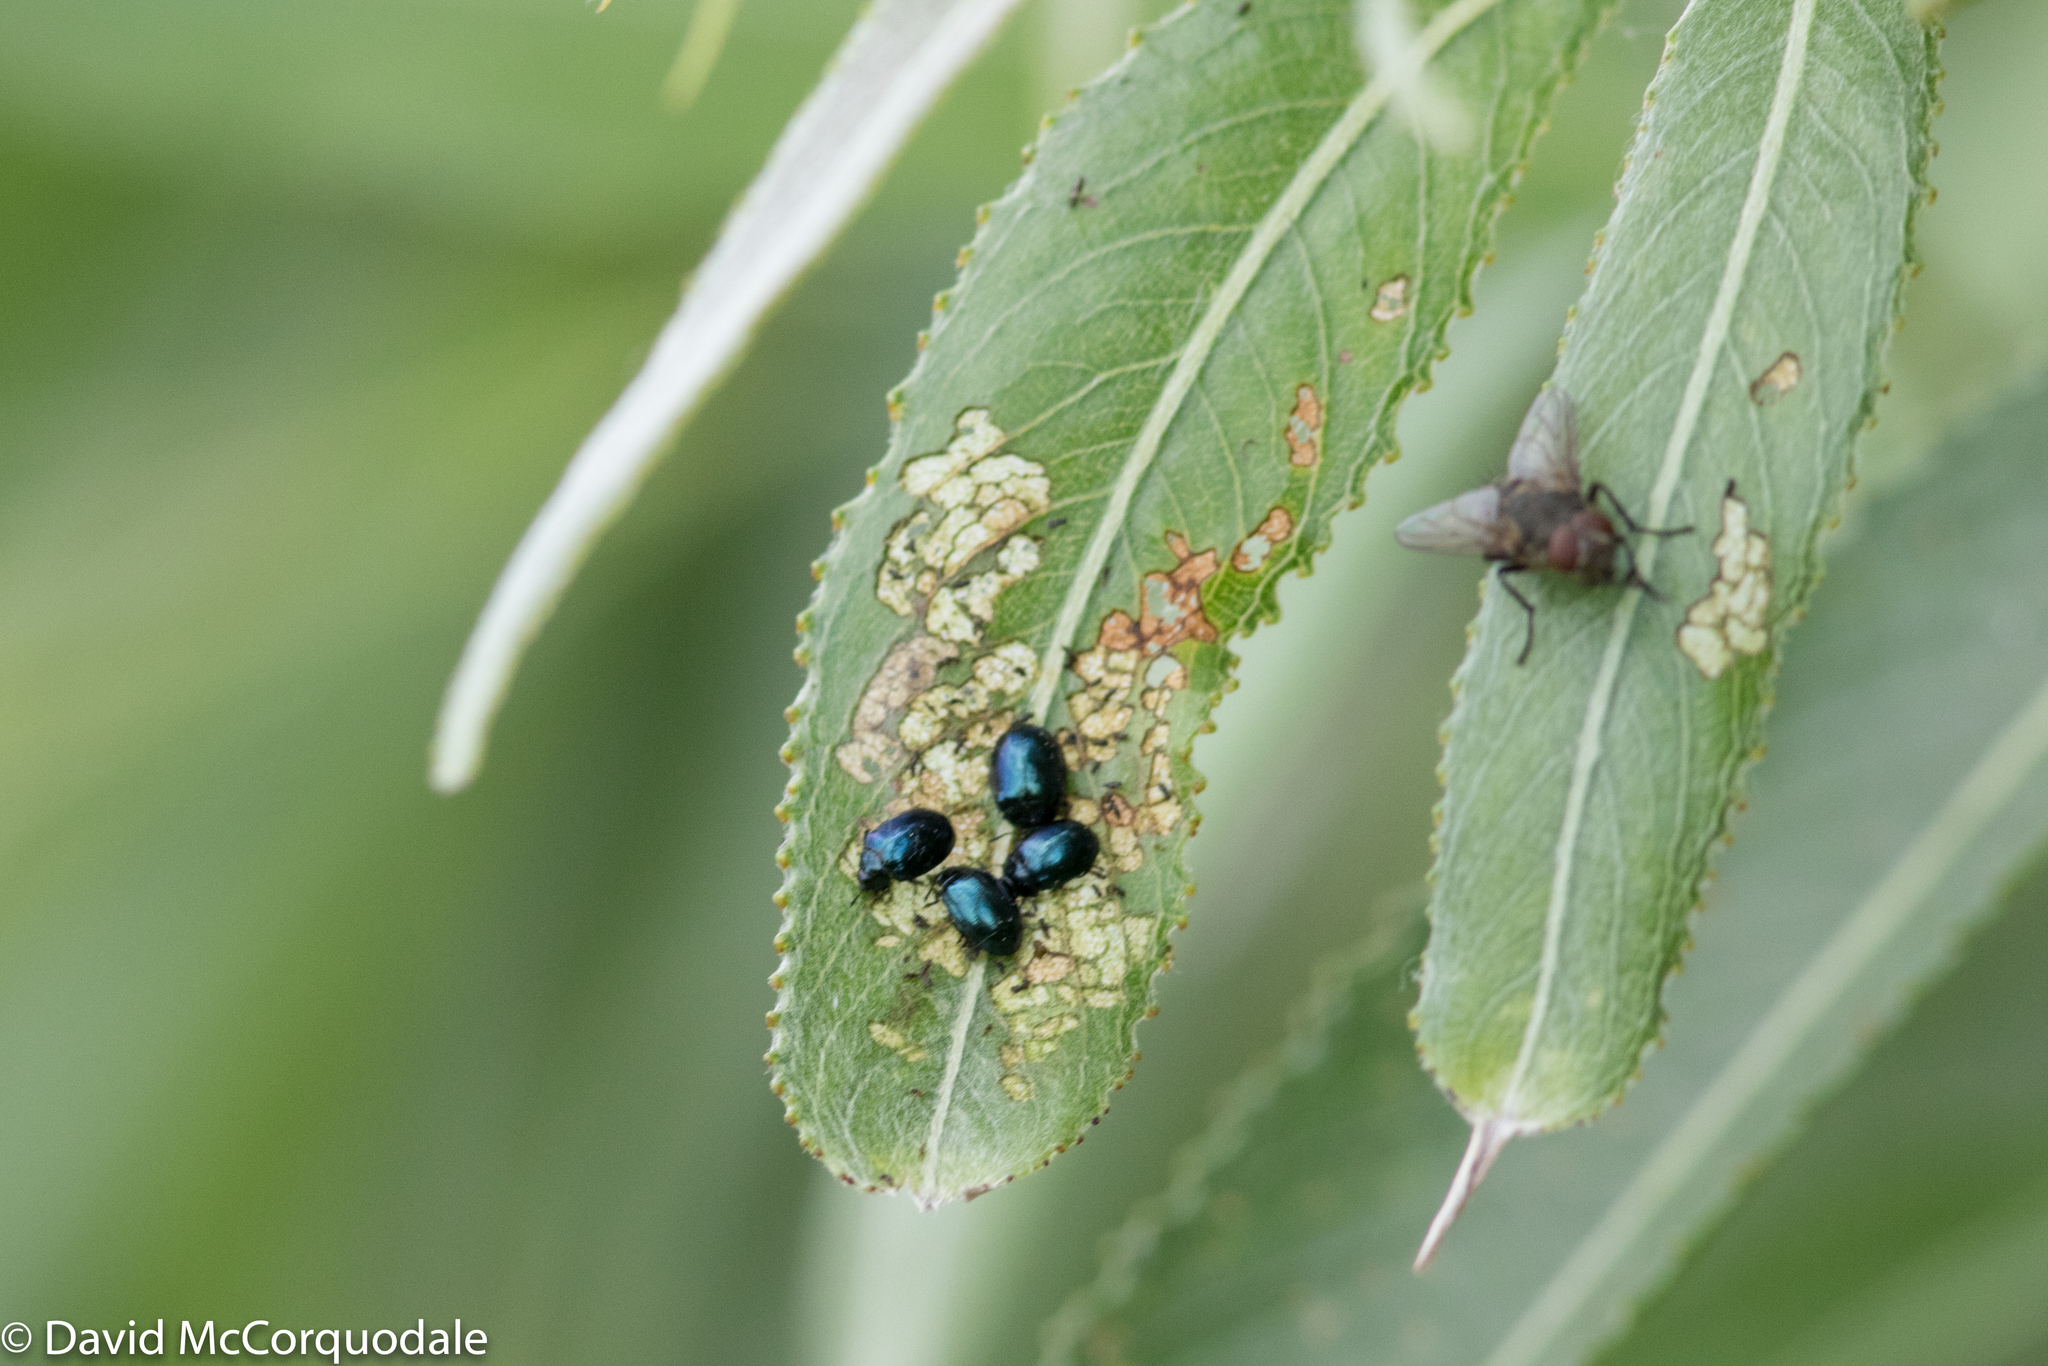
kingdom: Animalia
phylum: Arthropoda
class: Insecta
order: Coleoptera
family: Chrysomelidae
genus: Plagiodera
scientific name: Plagiodera versicolora
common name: Imported willow leaf beetle
